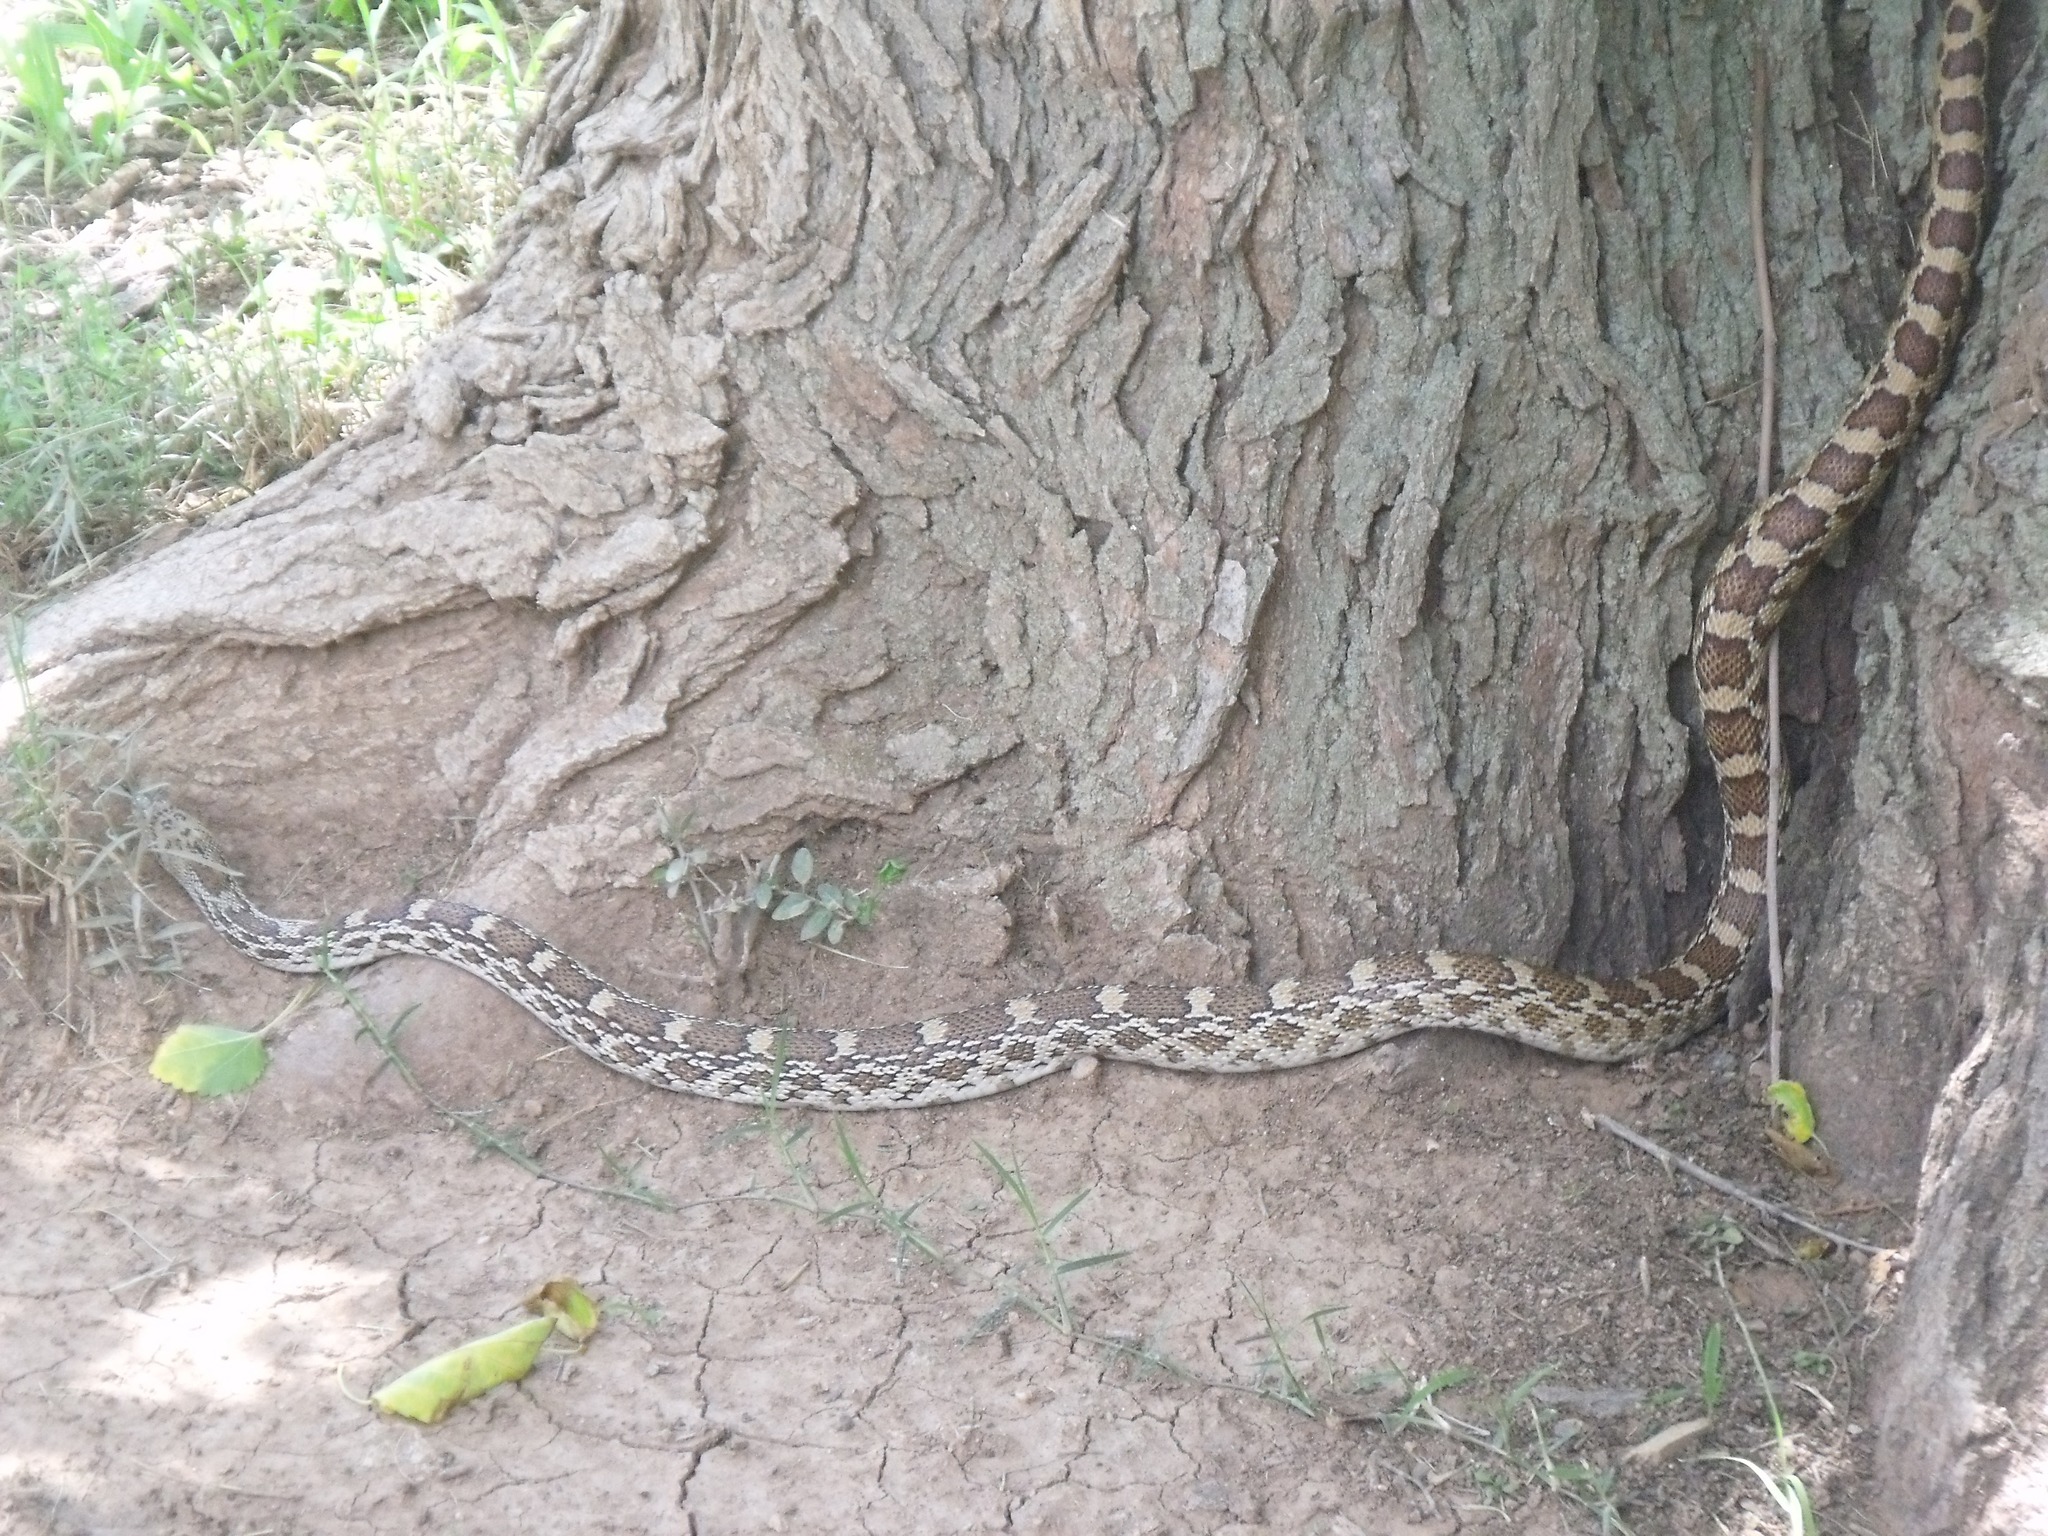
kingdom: Animalia
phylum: Chordata
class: Squamata
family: Colubridae
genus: Pituophis
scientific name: Pituophis catenifer
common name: Gopher snake
